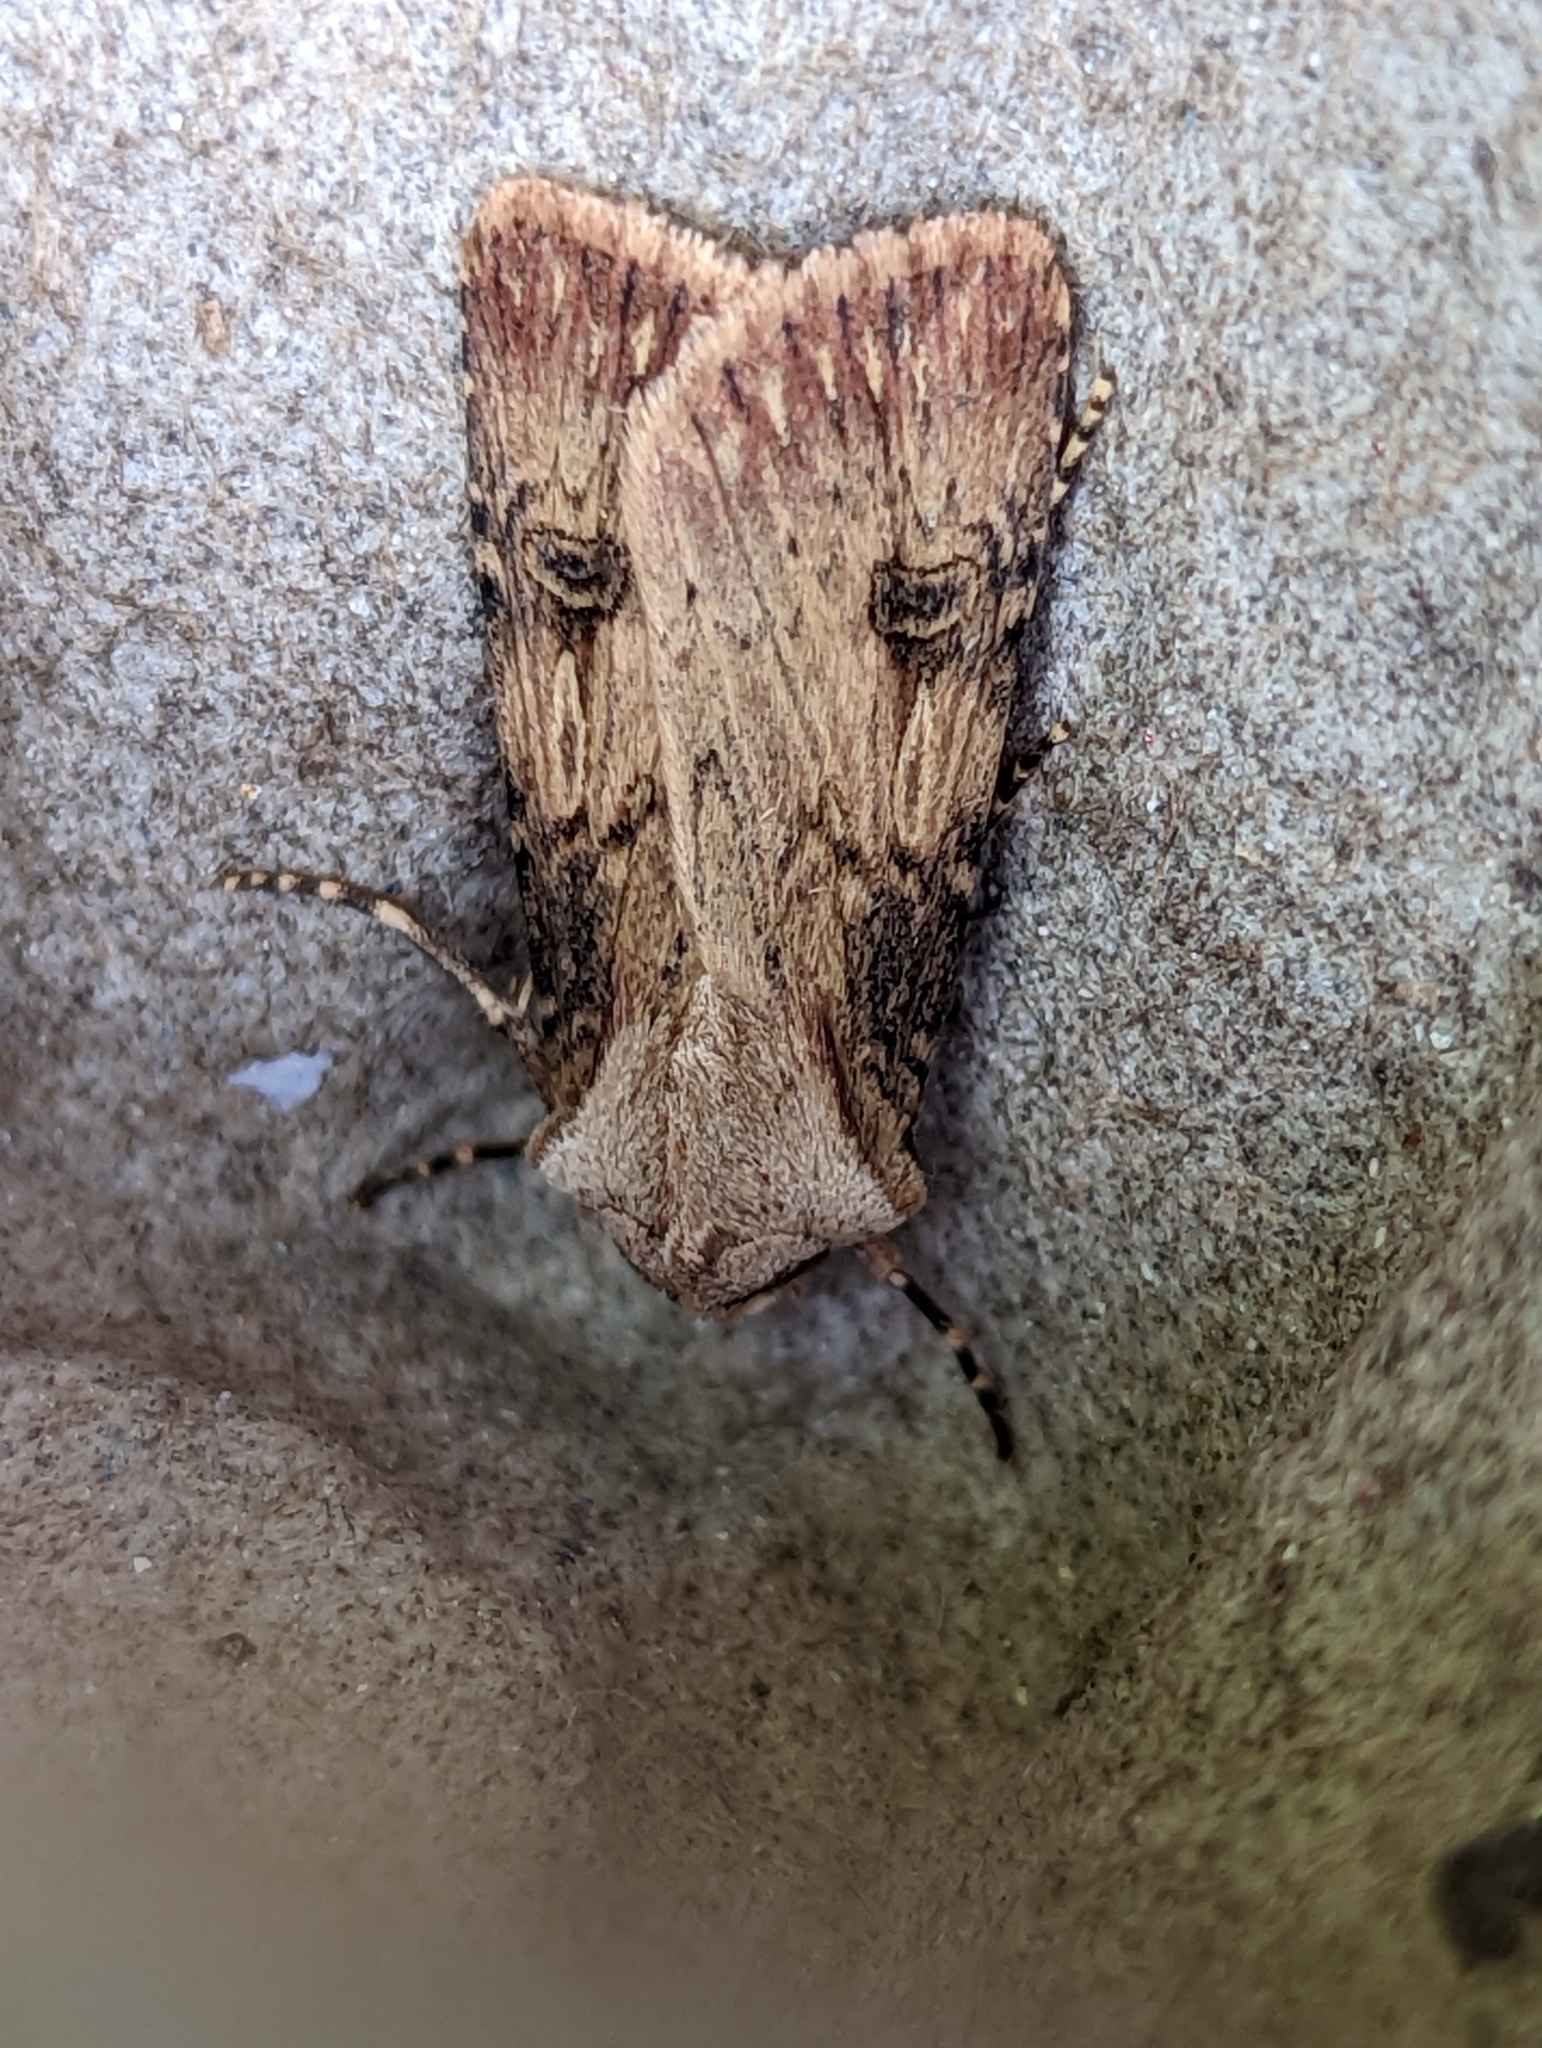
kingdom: Animalia
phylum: Arthropoda
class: Insecta
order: Lepidoptera
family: Noctuidae
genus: Agrotis
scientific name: Agrotis puta
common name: Shuttle-shaped dart
